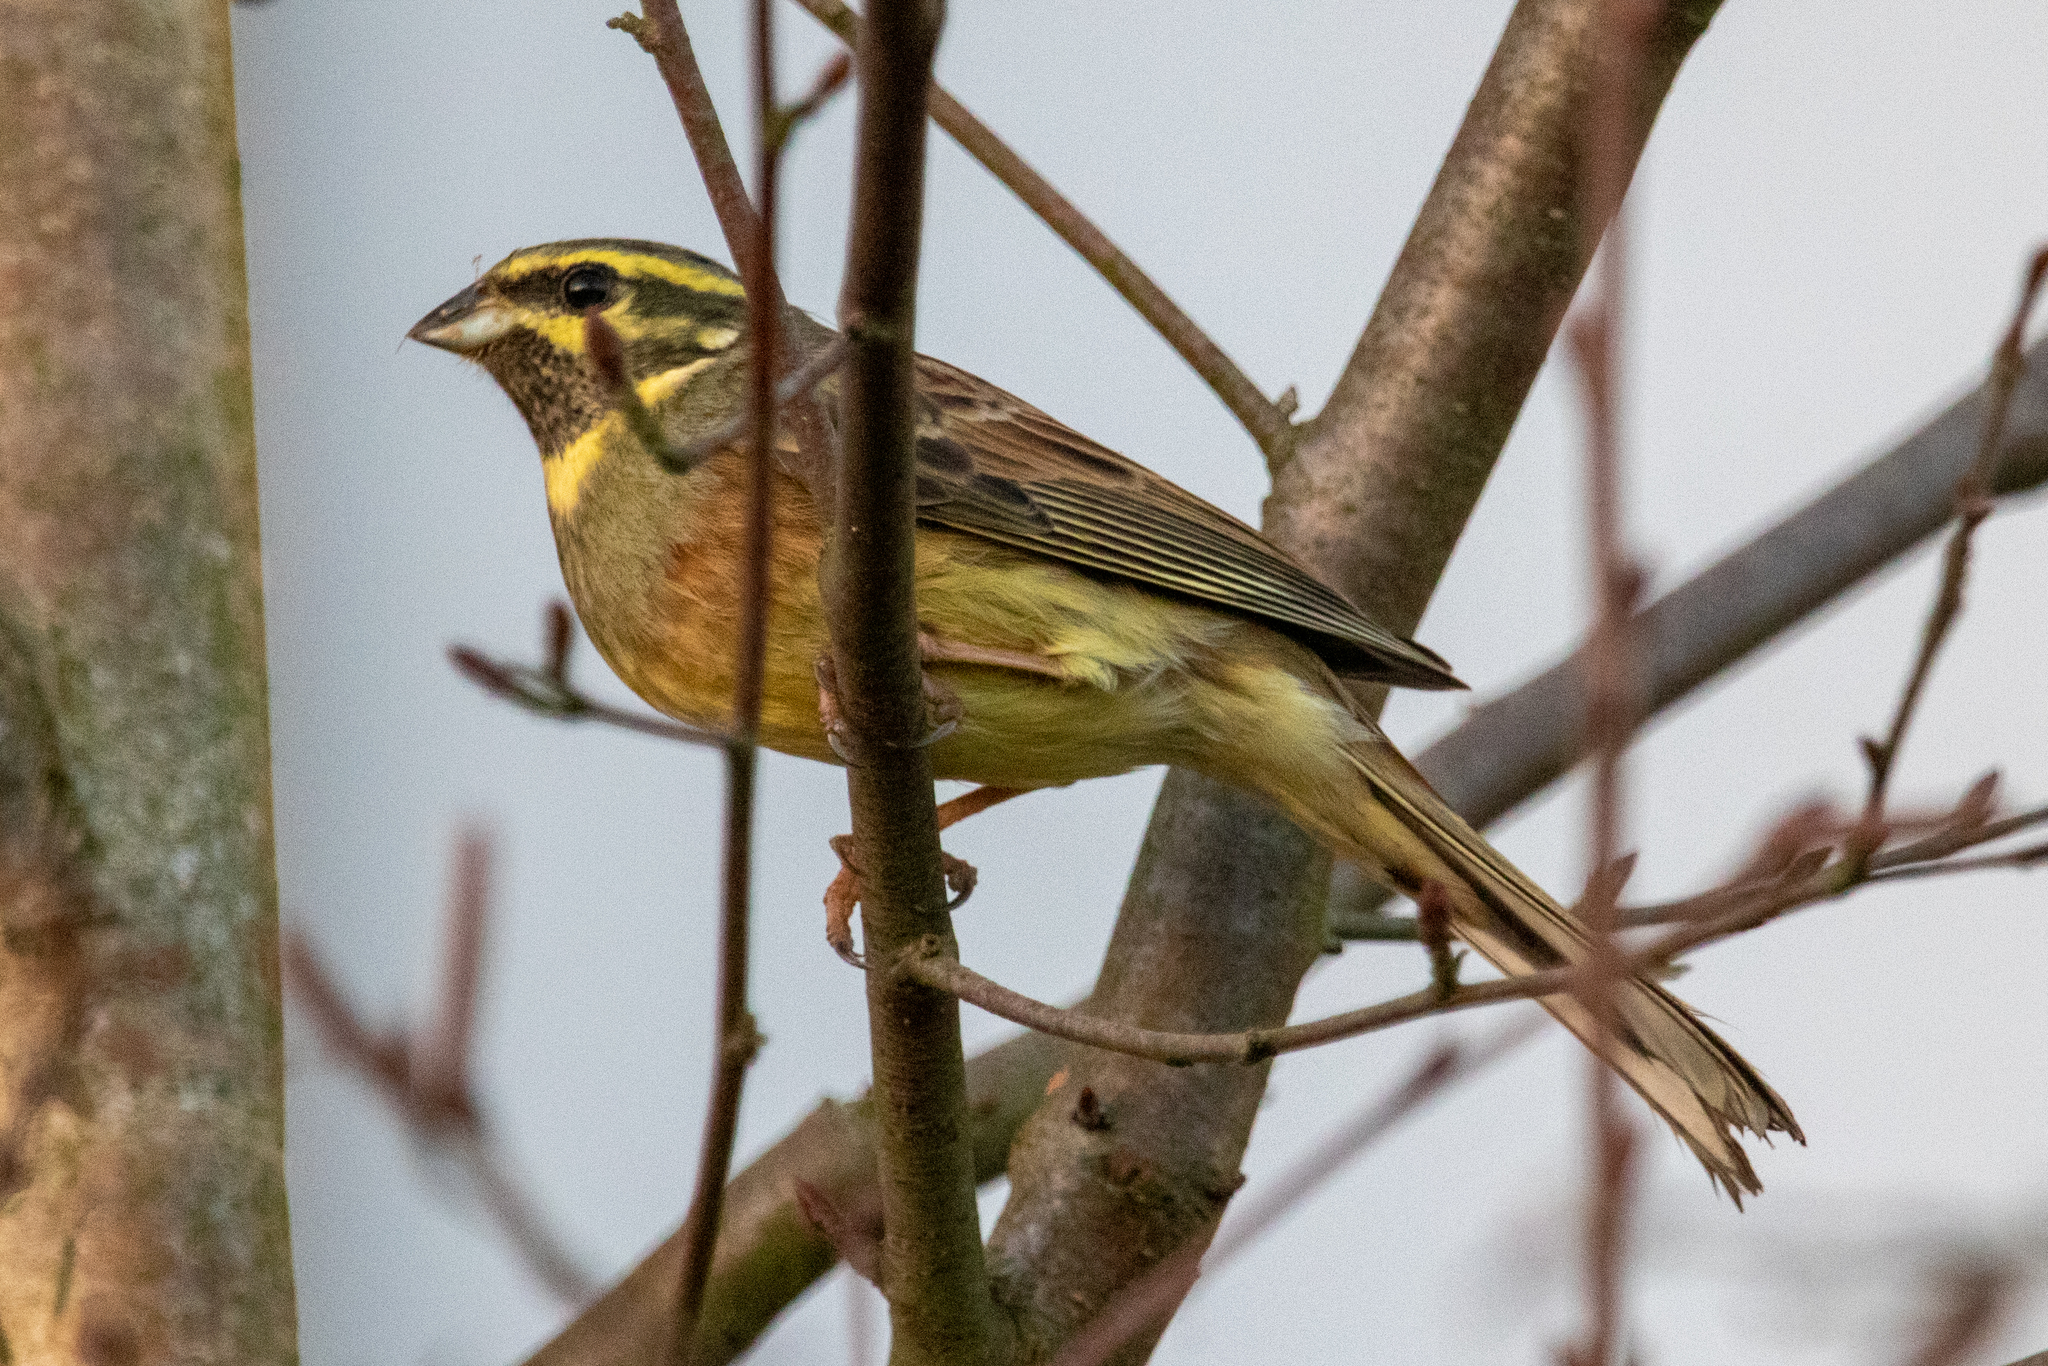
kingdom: Animalia
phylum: Chordata
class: Aves
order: Passeriformes
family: Emberizidae
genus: Emberiza
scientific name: Emberiza cirlus
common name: Cirl bunting
